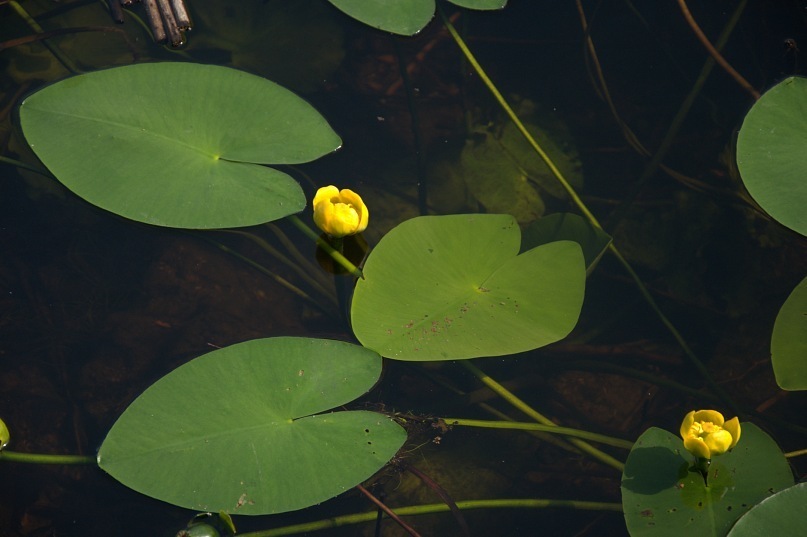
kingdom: Plantae
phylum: Tracheophyta
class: Magnoliopsida
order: Nymphaeales
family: Nymphaeaceae
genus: Nuphar
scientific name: Nuphar lutea
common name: Yellow water-lily
